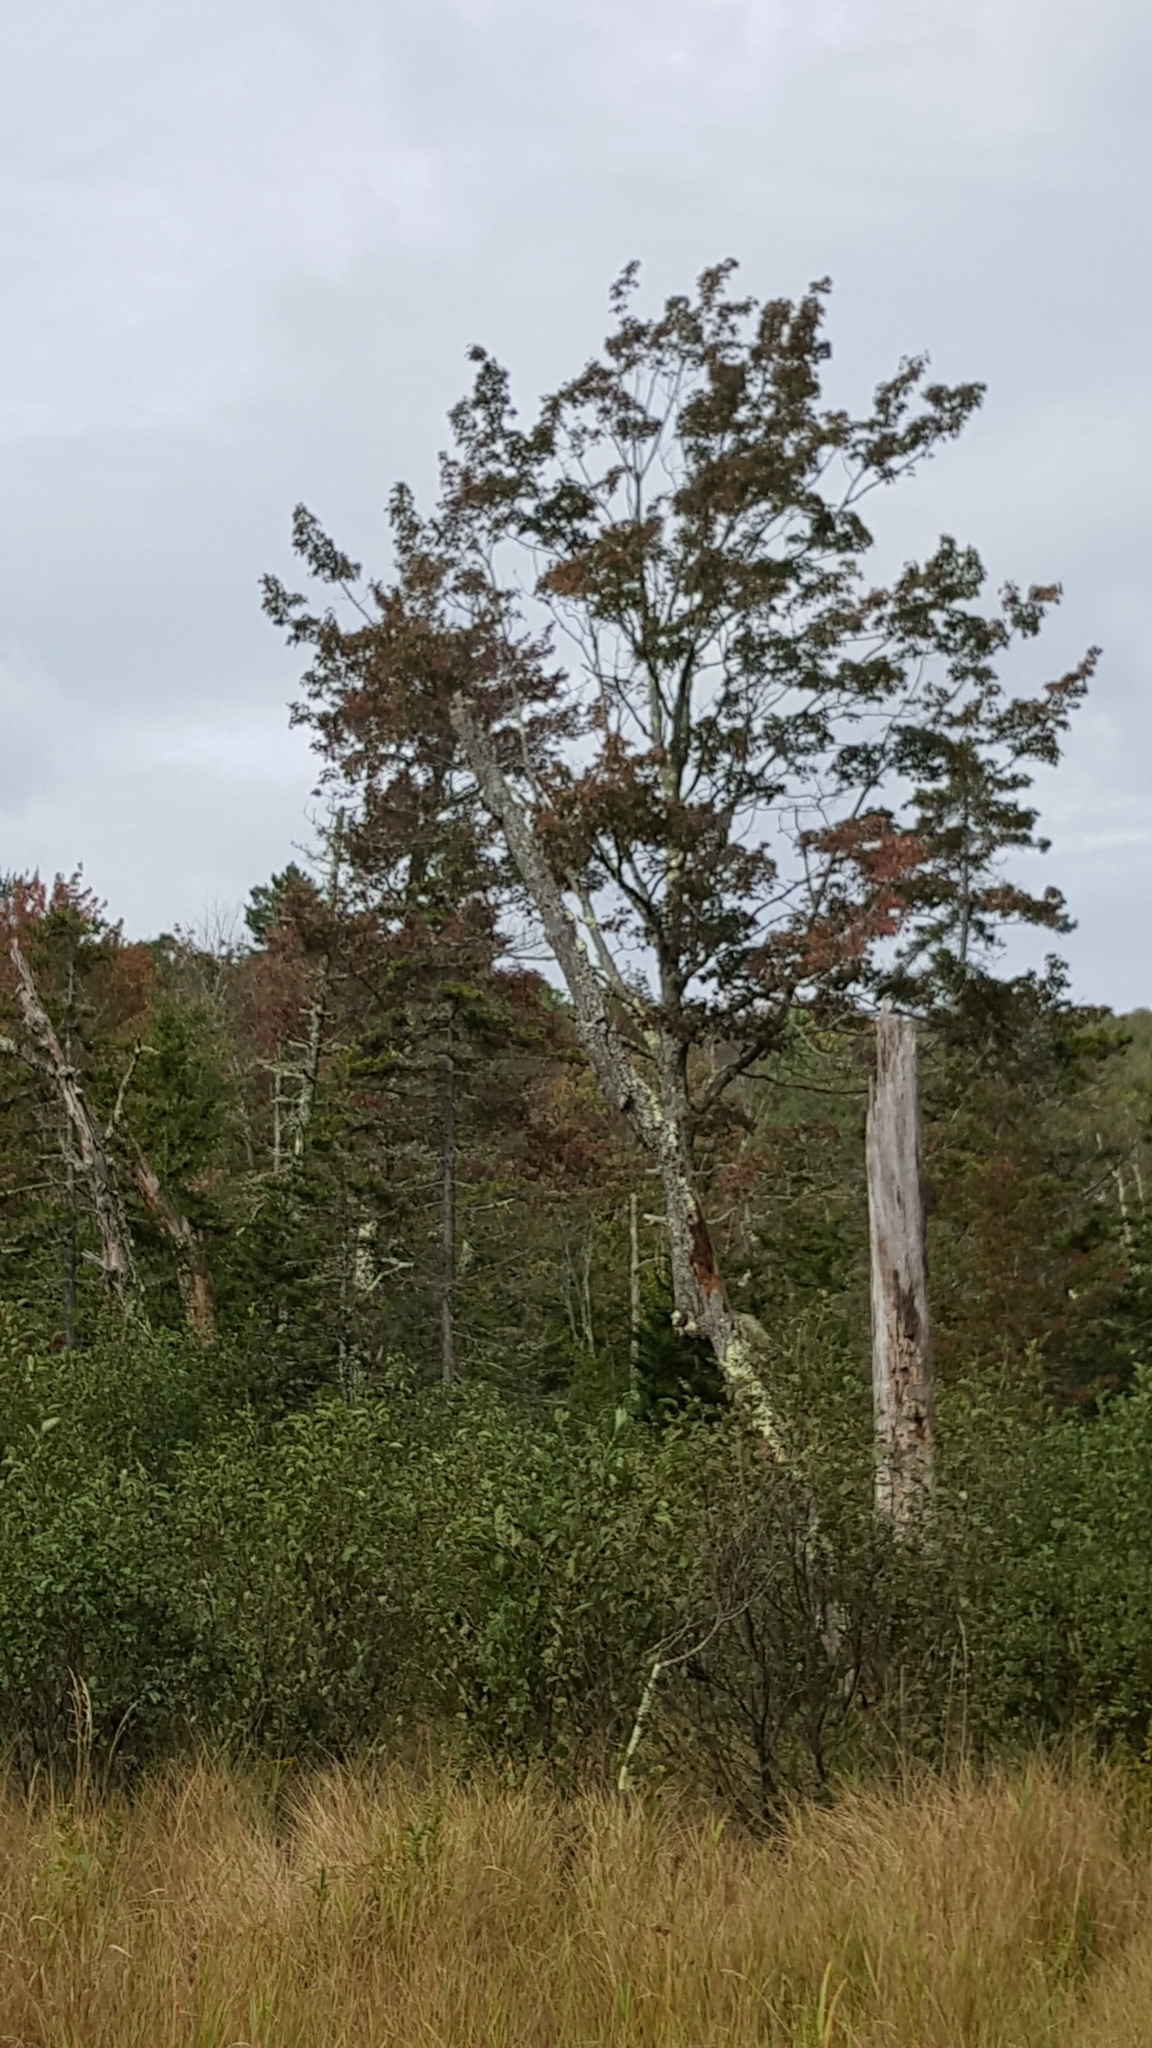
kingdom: Plantae
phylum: Tracheophyta
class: Magnoliopsida
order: Sapindales
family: Sapindaceae
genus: Acer
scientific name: Acer rubrum
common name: Red maple
